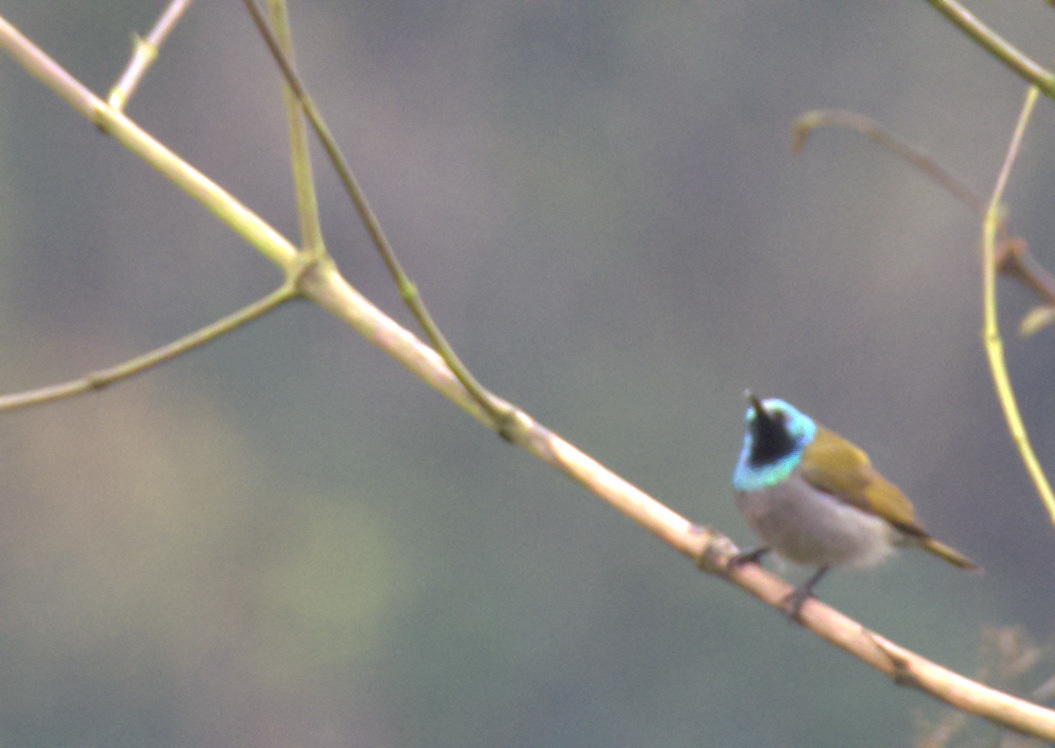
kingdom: Animalia
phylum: Chordata
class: Aves
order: Passeriformes
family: Nectariniidae
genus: Cyanomitra
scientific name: Cyanomitra verticalis
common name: Green-headed sunbird
